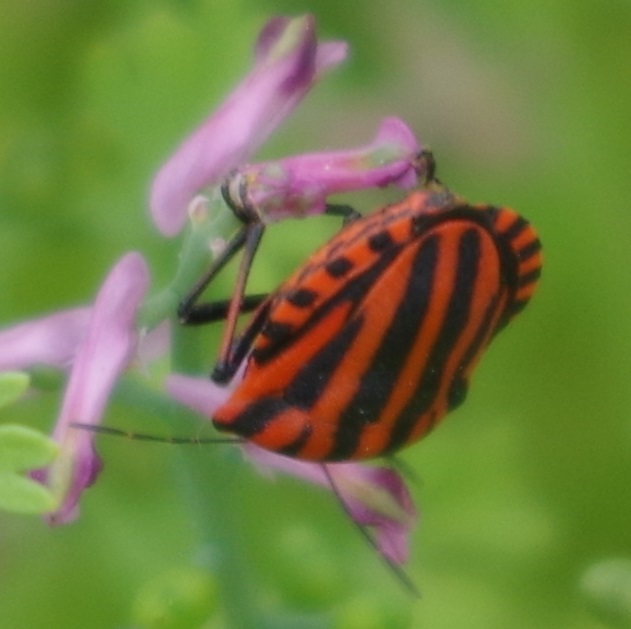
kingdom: Animalia
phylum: Arthropoda
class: Insecta
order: Hemiptera
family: Pentatomidae
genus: Graphosoma
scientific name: Graphosoma italicum
